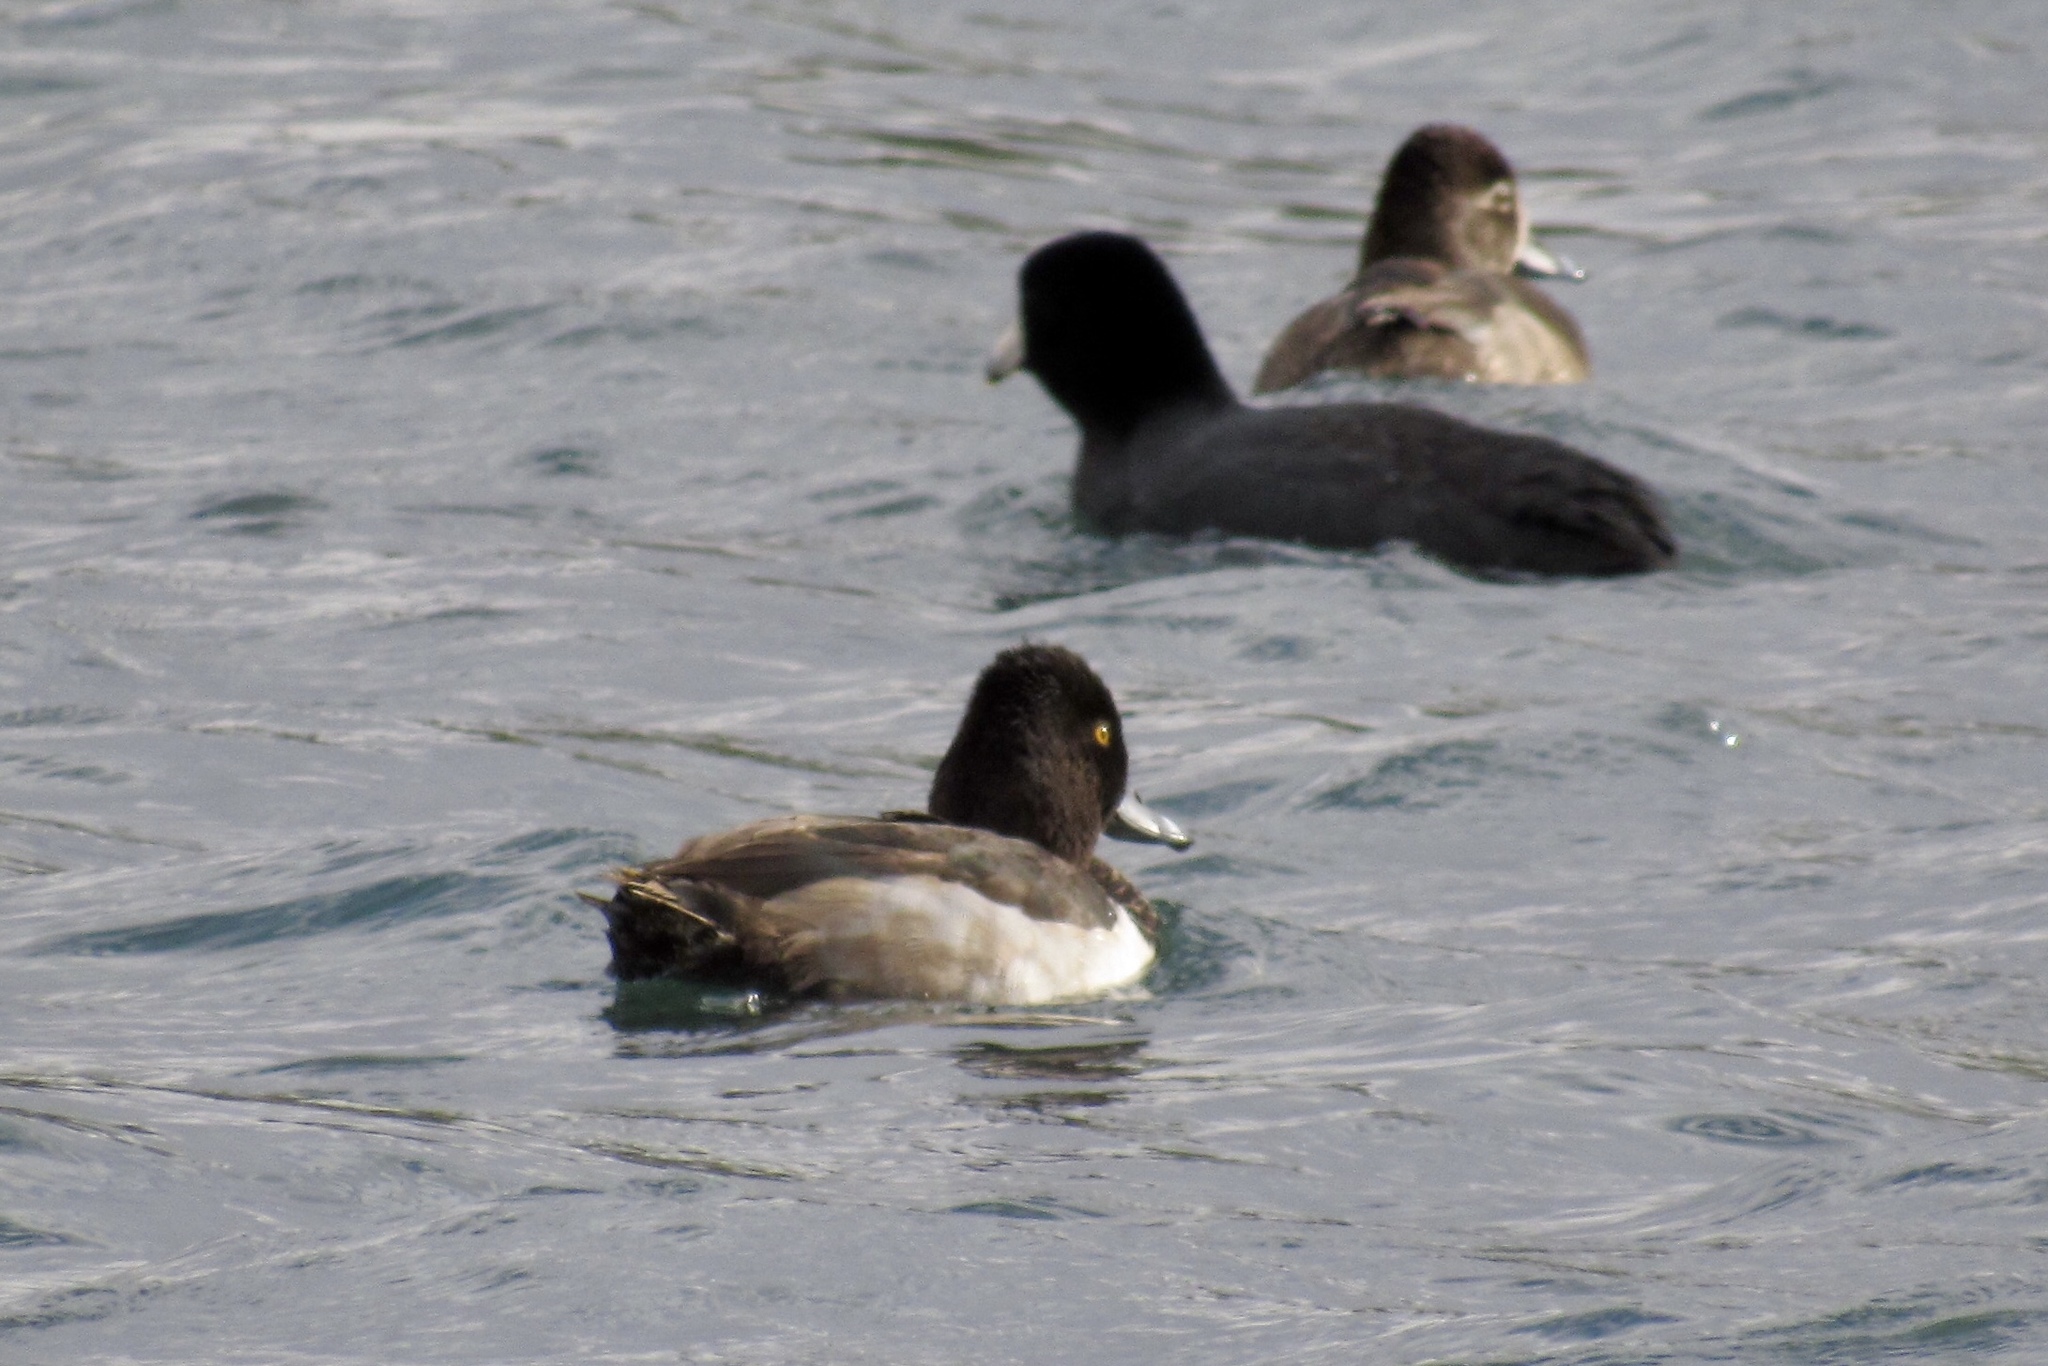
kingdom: Animalia
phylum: Chordata
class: Aves
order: Gruiformes
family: Rallidae
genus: Fulica
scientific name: Fulica americana
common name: American coot
